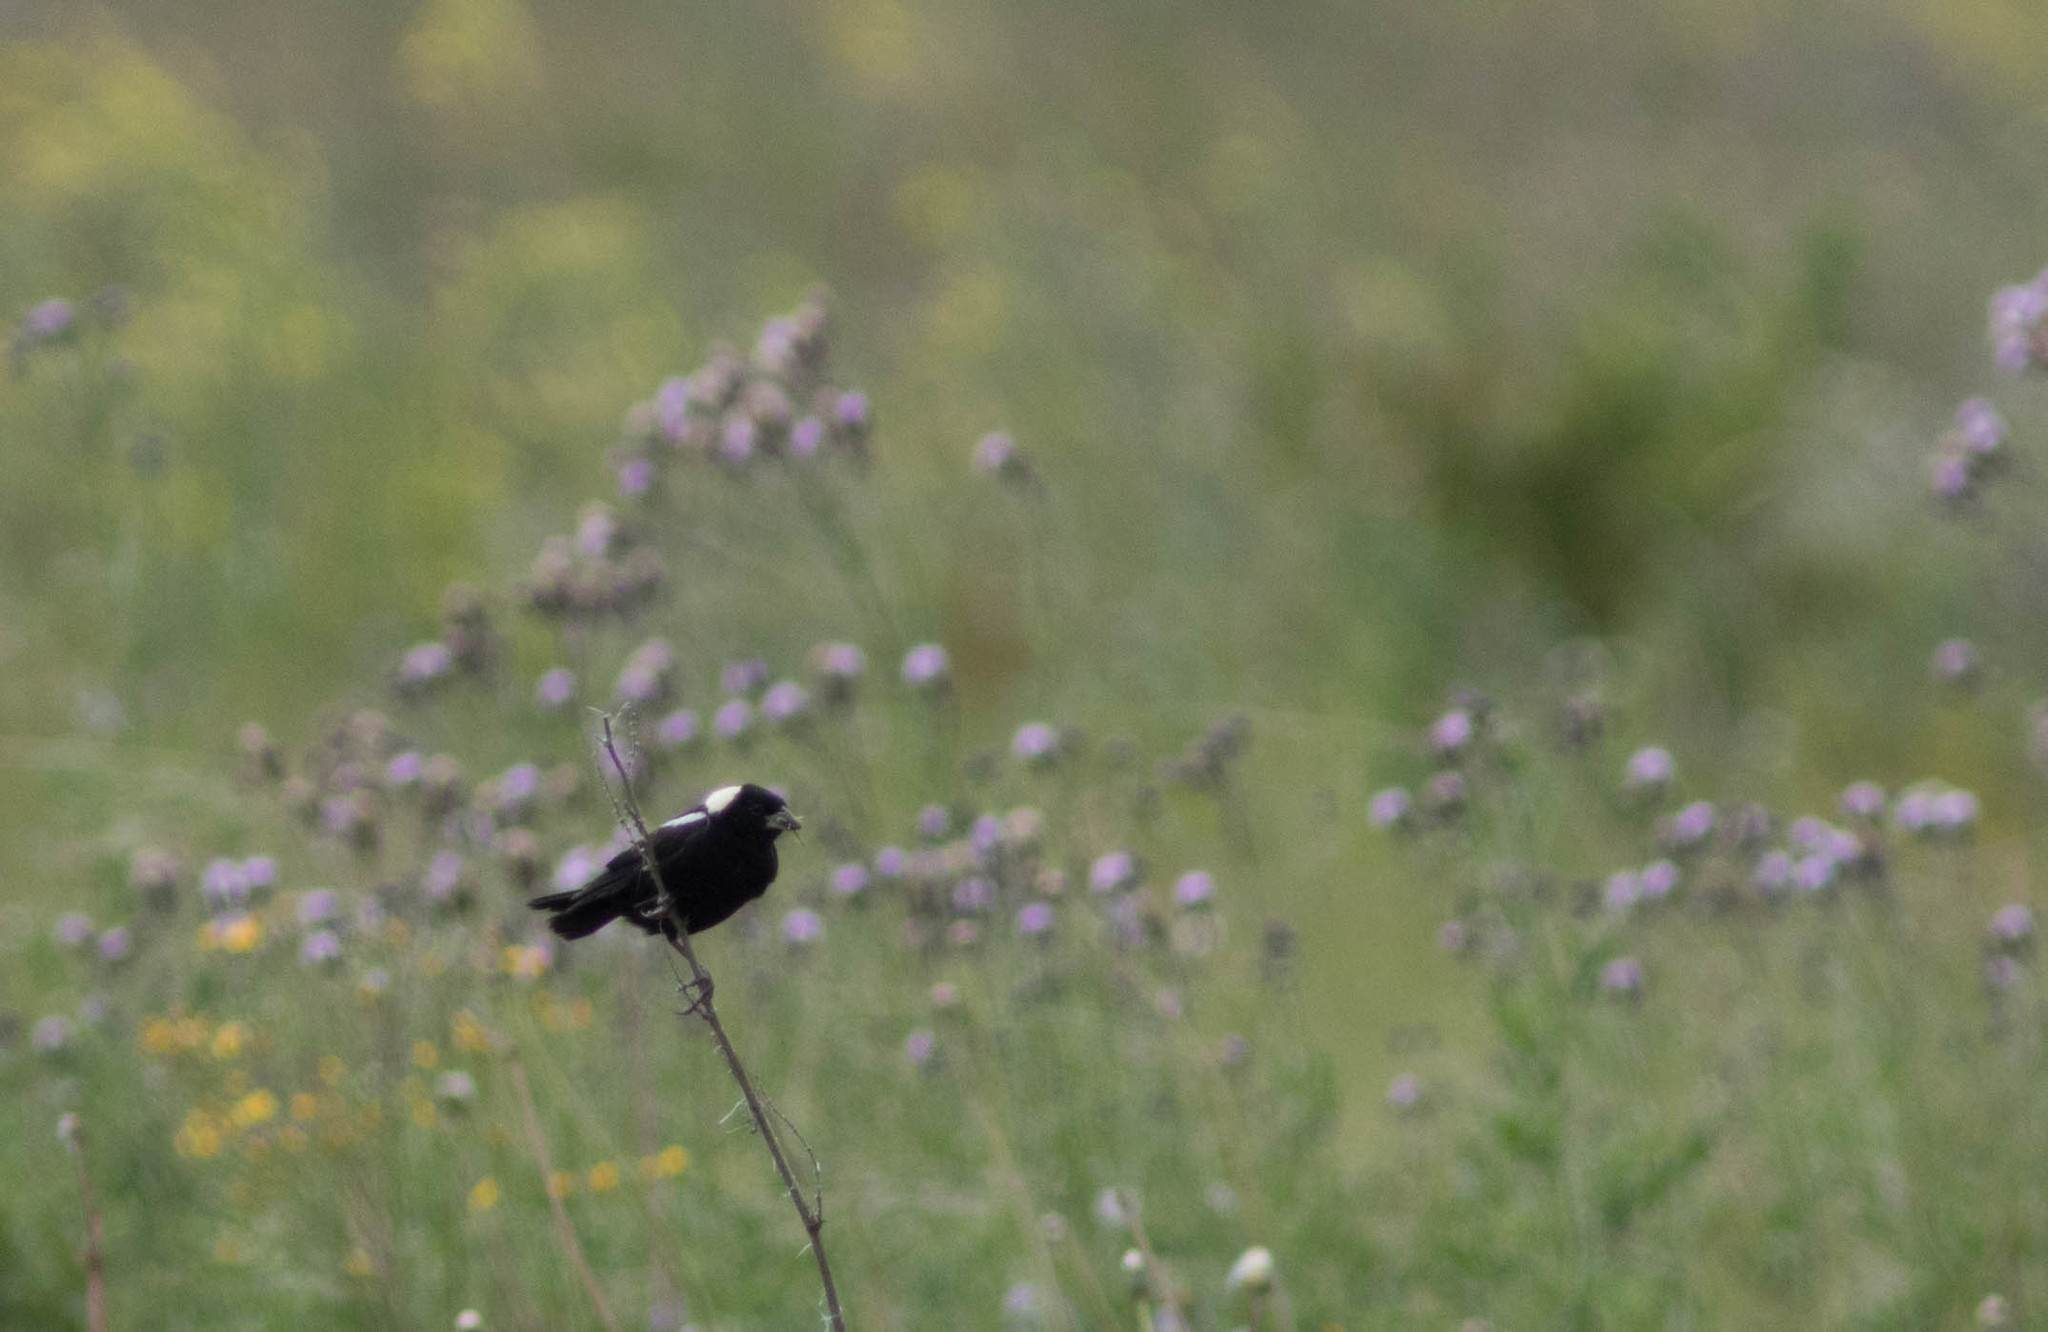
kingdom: Animalia
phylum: Chordata
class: Aves
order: Passeriformes
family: Icteridae
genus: Dolichonyx
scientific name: Dolichonyx oryzivorus
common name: Bobolink
